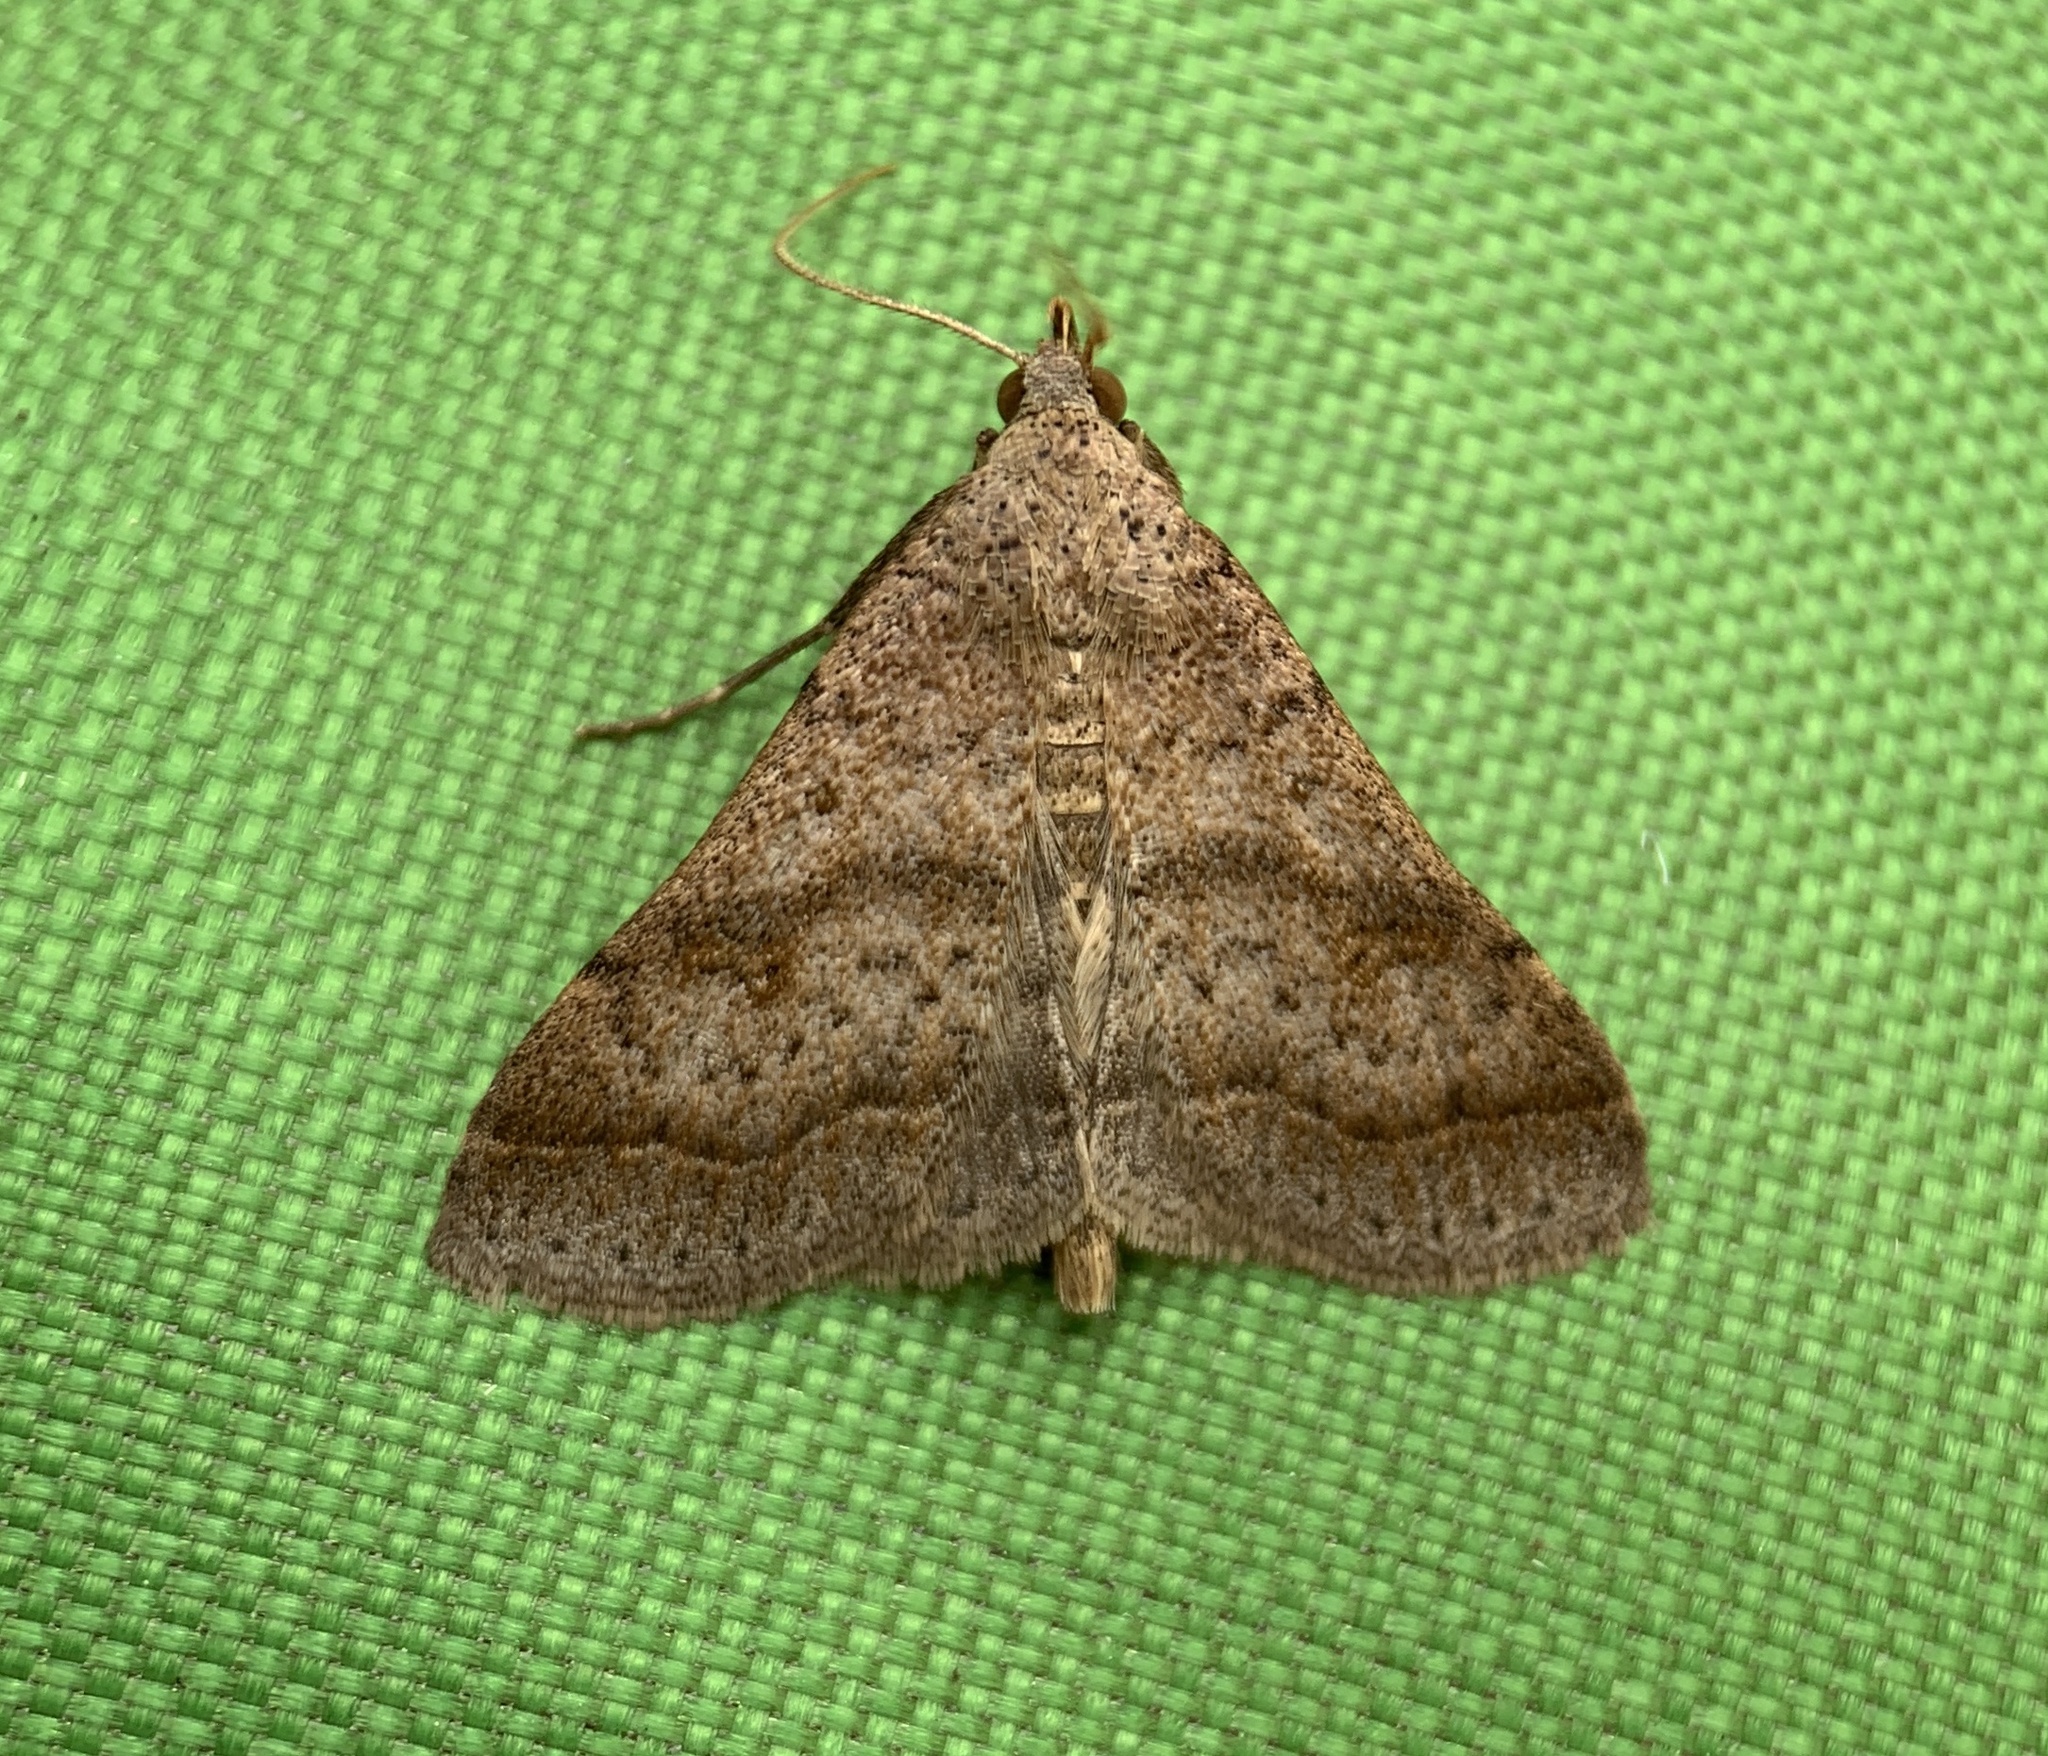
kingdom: Animalia
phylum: Arthropoda
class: Insecta
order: Lepidoptera
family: Erebidae
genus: Bleptina
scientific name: Bleptina caradrinalis
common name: Bent-winged owlet
